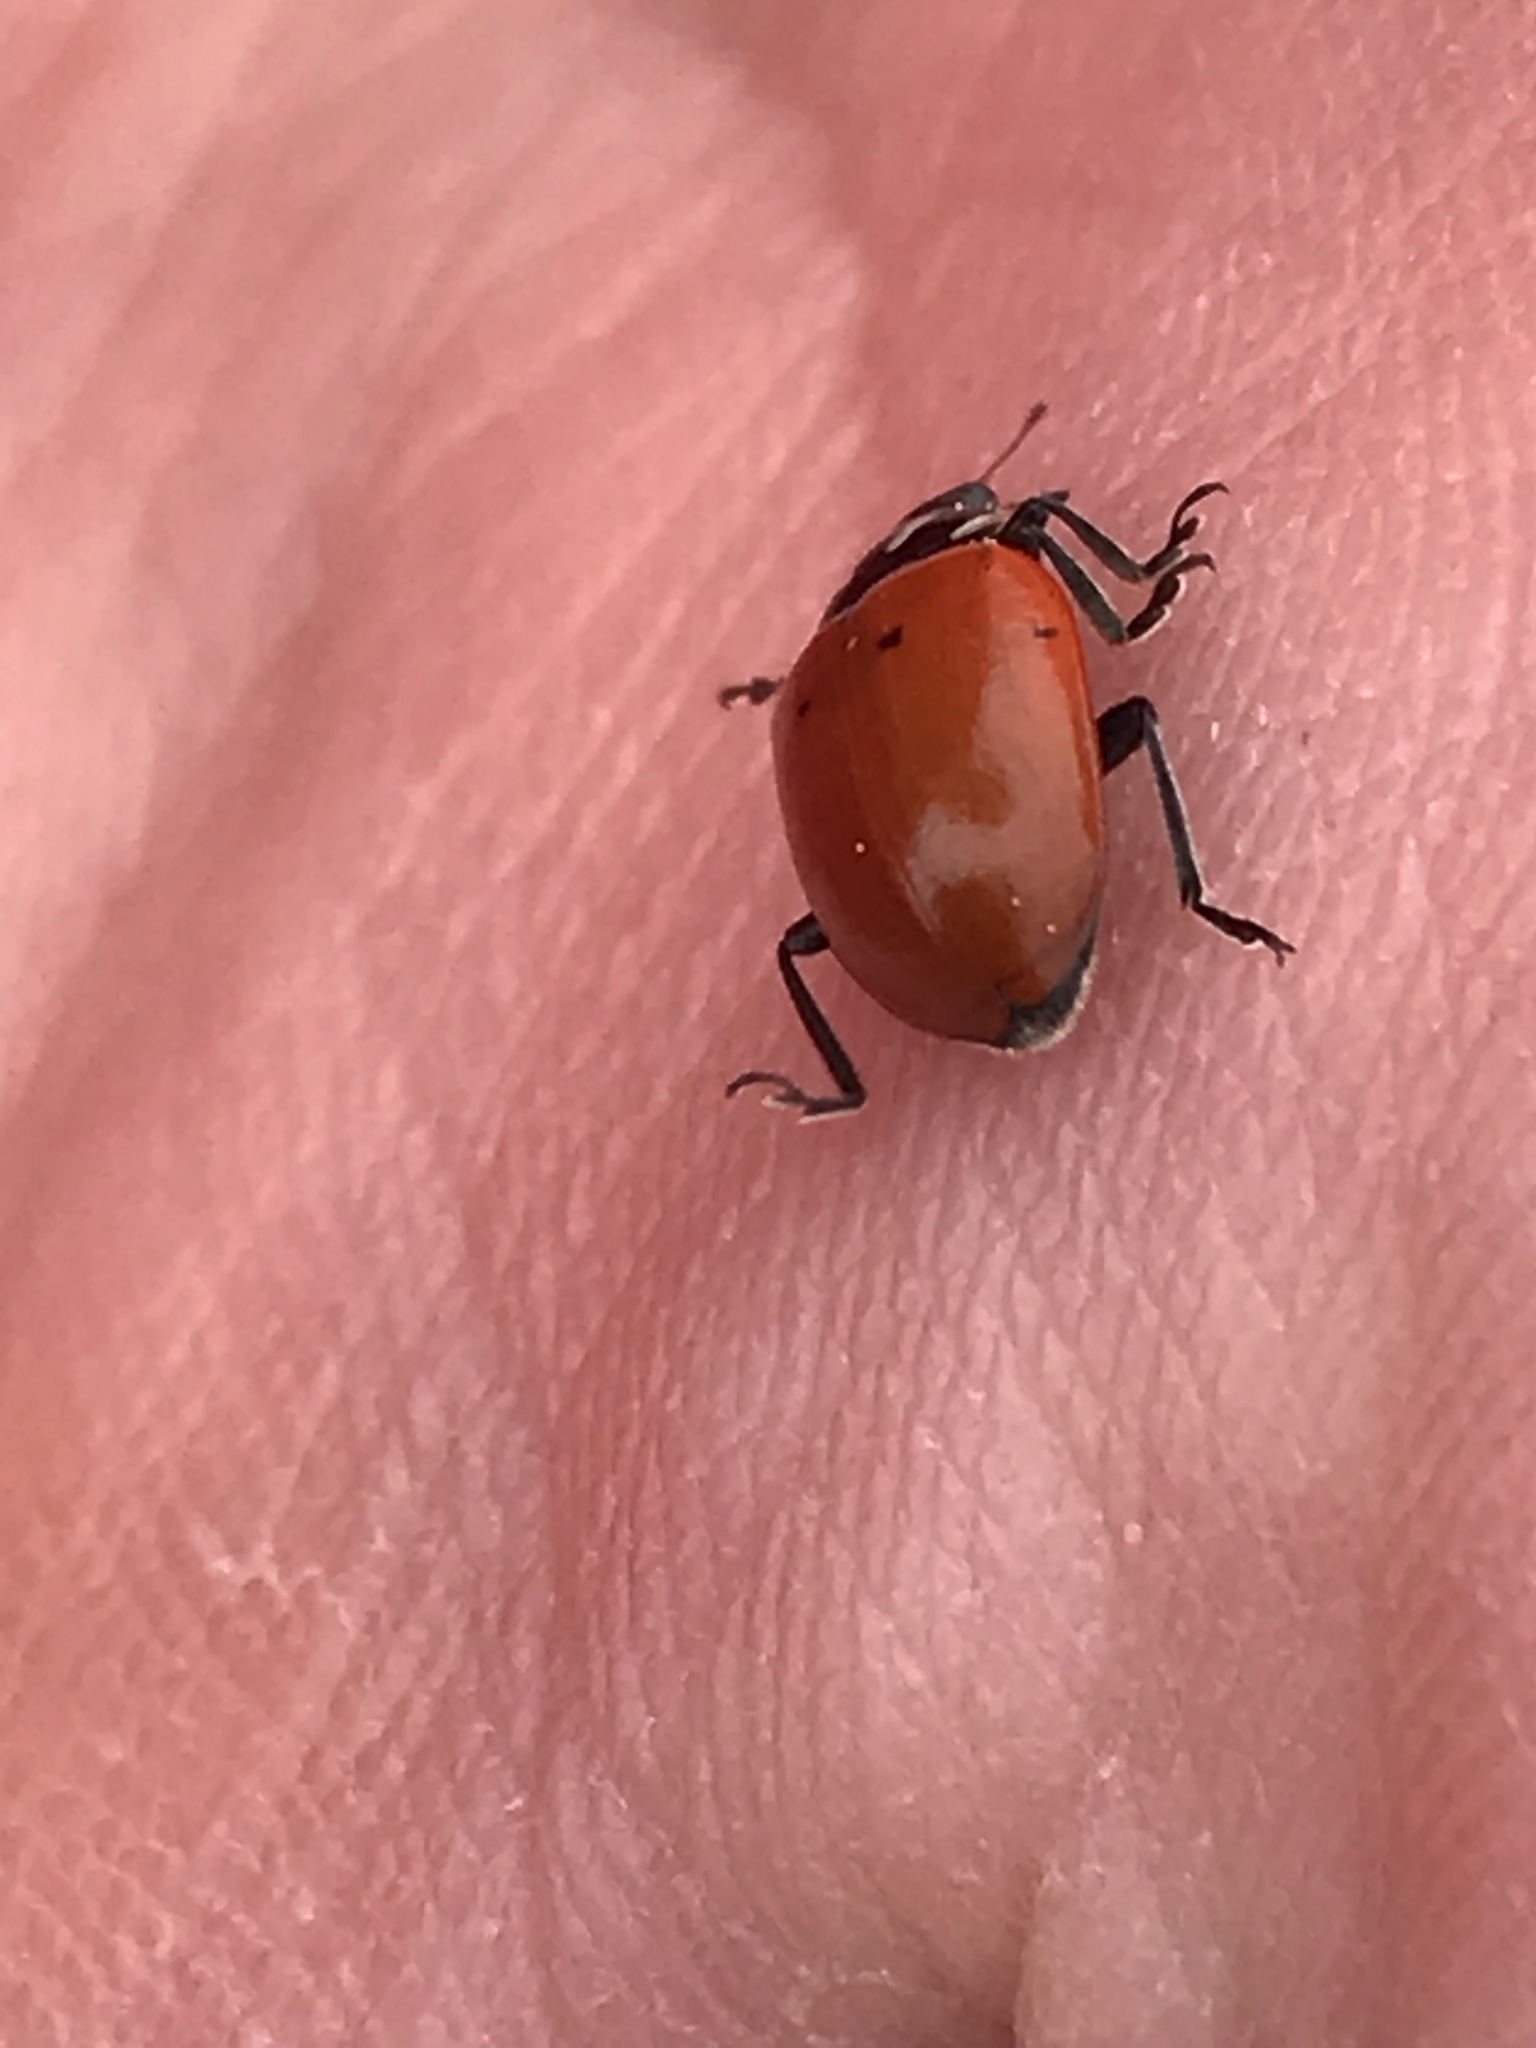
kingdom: Animalia
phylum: Arthropoda
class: Insecta
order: Coleoptera
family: Coccinellidae
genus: Hippodamia
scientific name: Hippodamia convergens
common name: Convergent lady beetle
